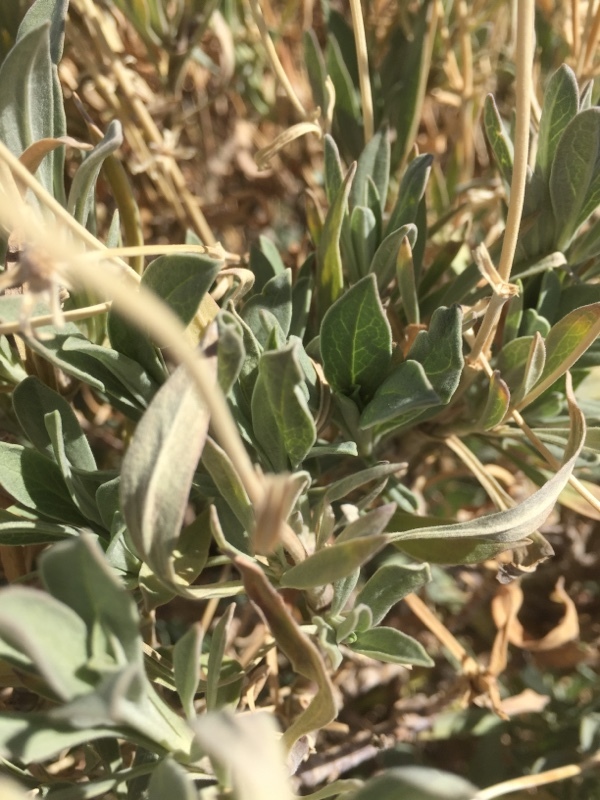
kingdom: Plantae
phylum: Tracheophyta
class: Magnoliopsida
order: Dipsacales
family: Caprifoliaceae
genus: Pterocephalus
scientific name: Pterocephalus lasiospermus
